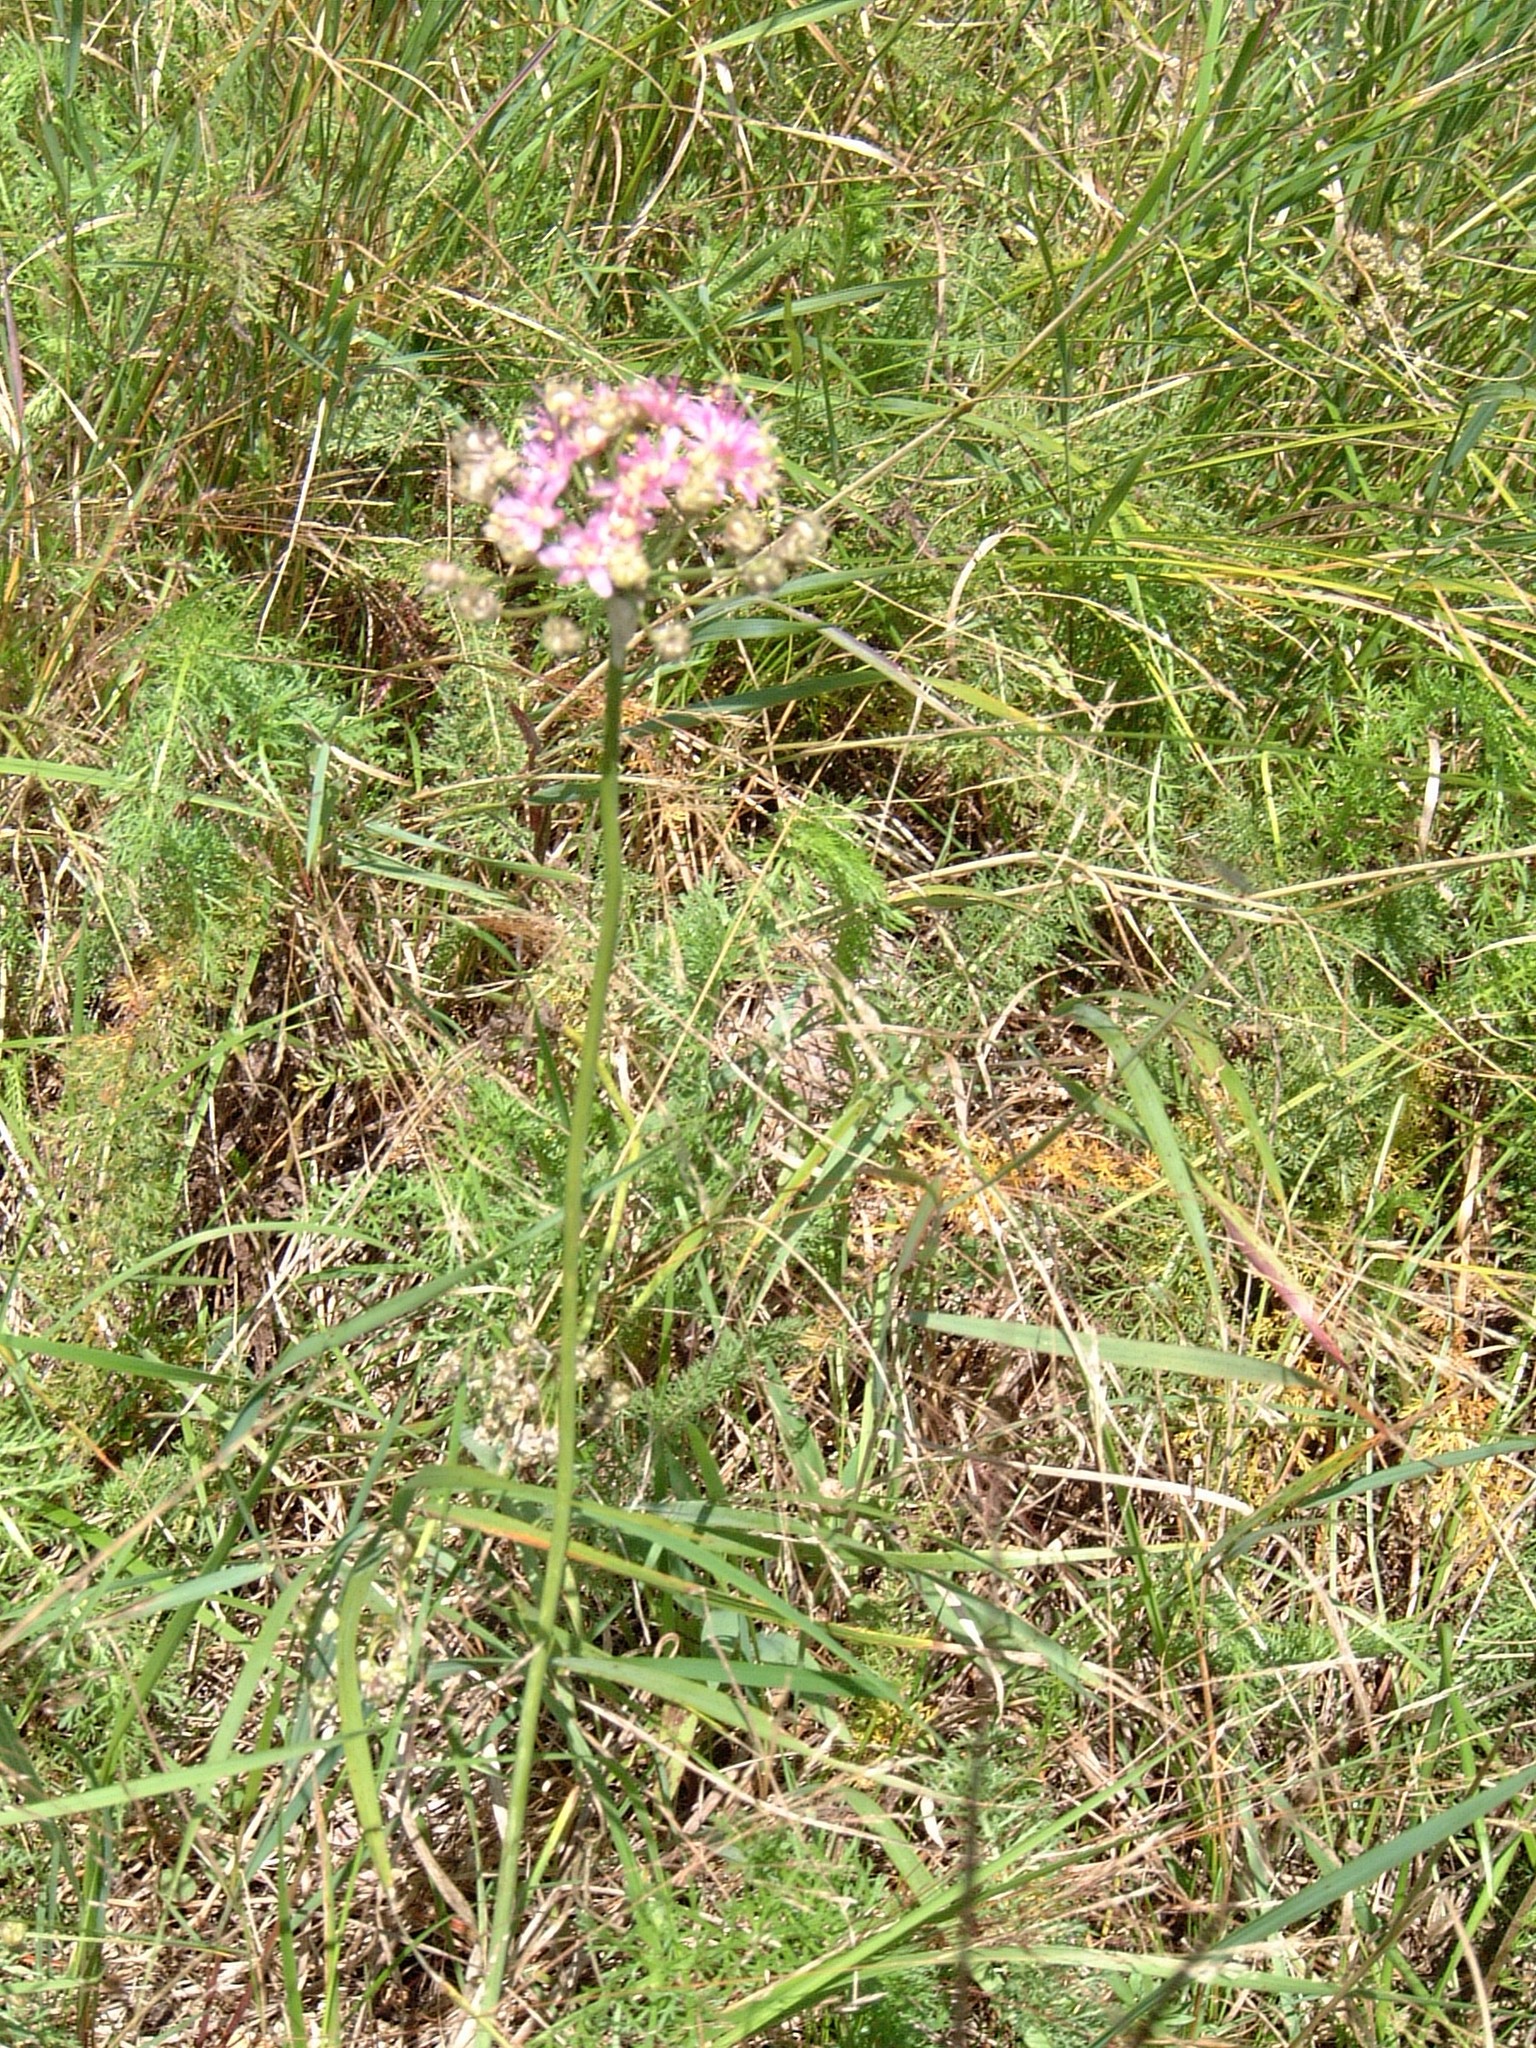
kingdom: Plantae
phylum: Tracheophyta
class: Liliopsida
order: Asparagales
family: Amaryllidaceae
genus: Allium
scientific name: Allium stellatum
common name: Autumn onion
